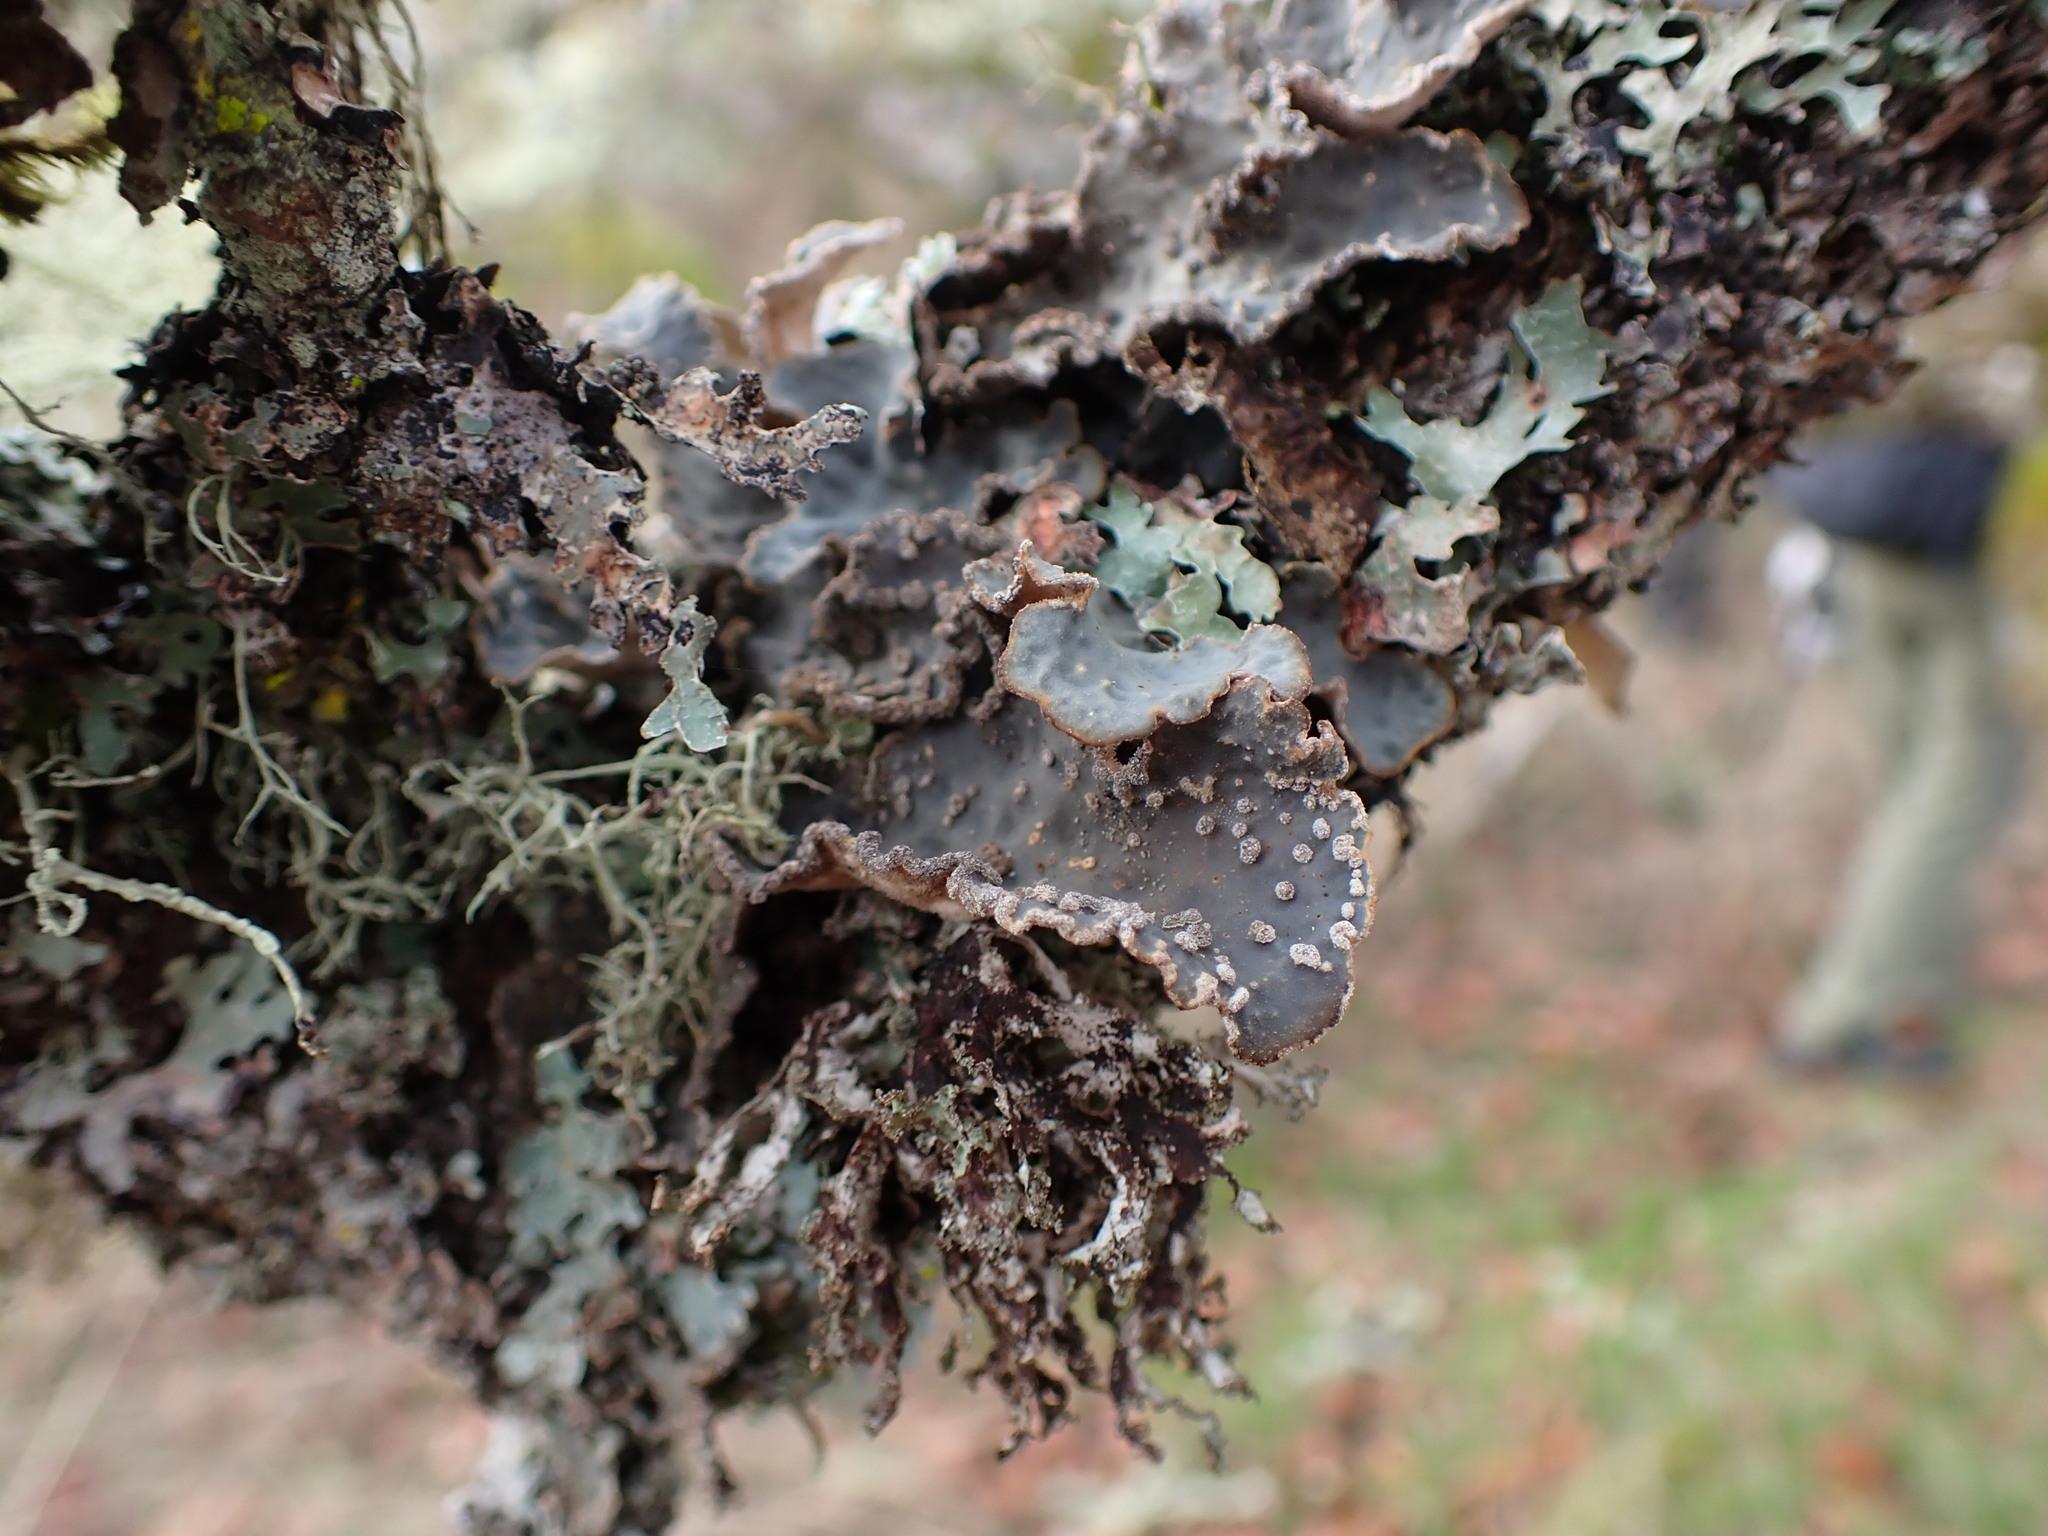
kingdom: Fungi
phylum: Ascomycota
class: Lecanoromycetes
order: Peltigerales
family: Lobariaceae
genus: Lobaria
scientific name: Lobaria hallii
